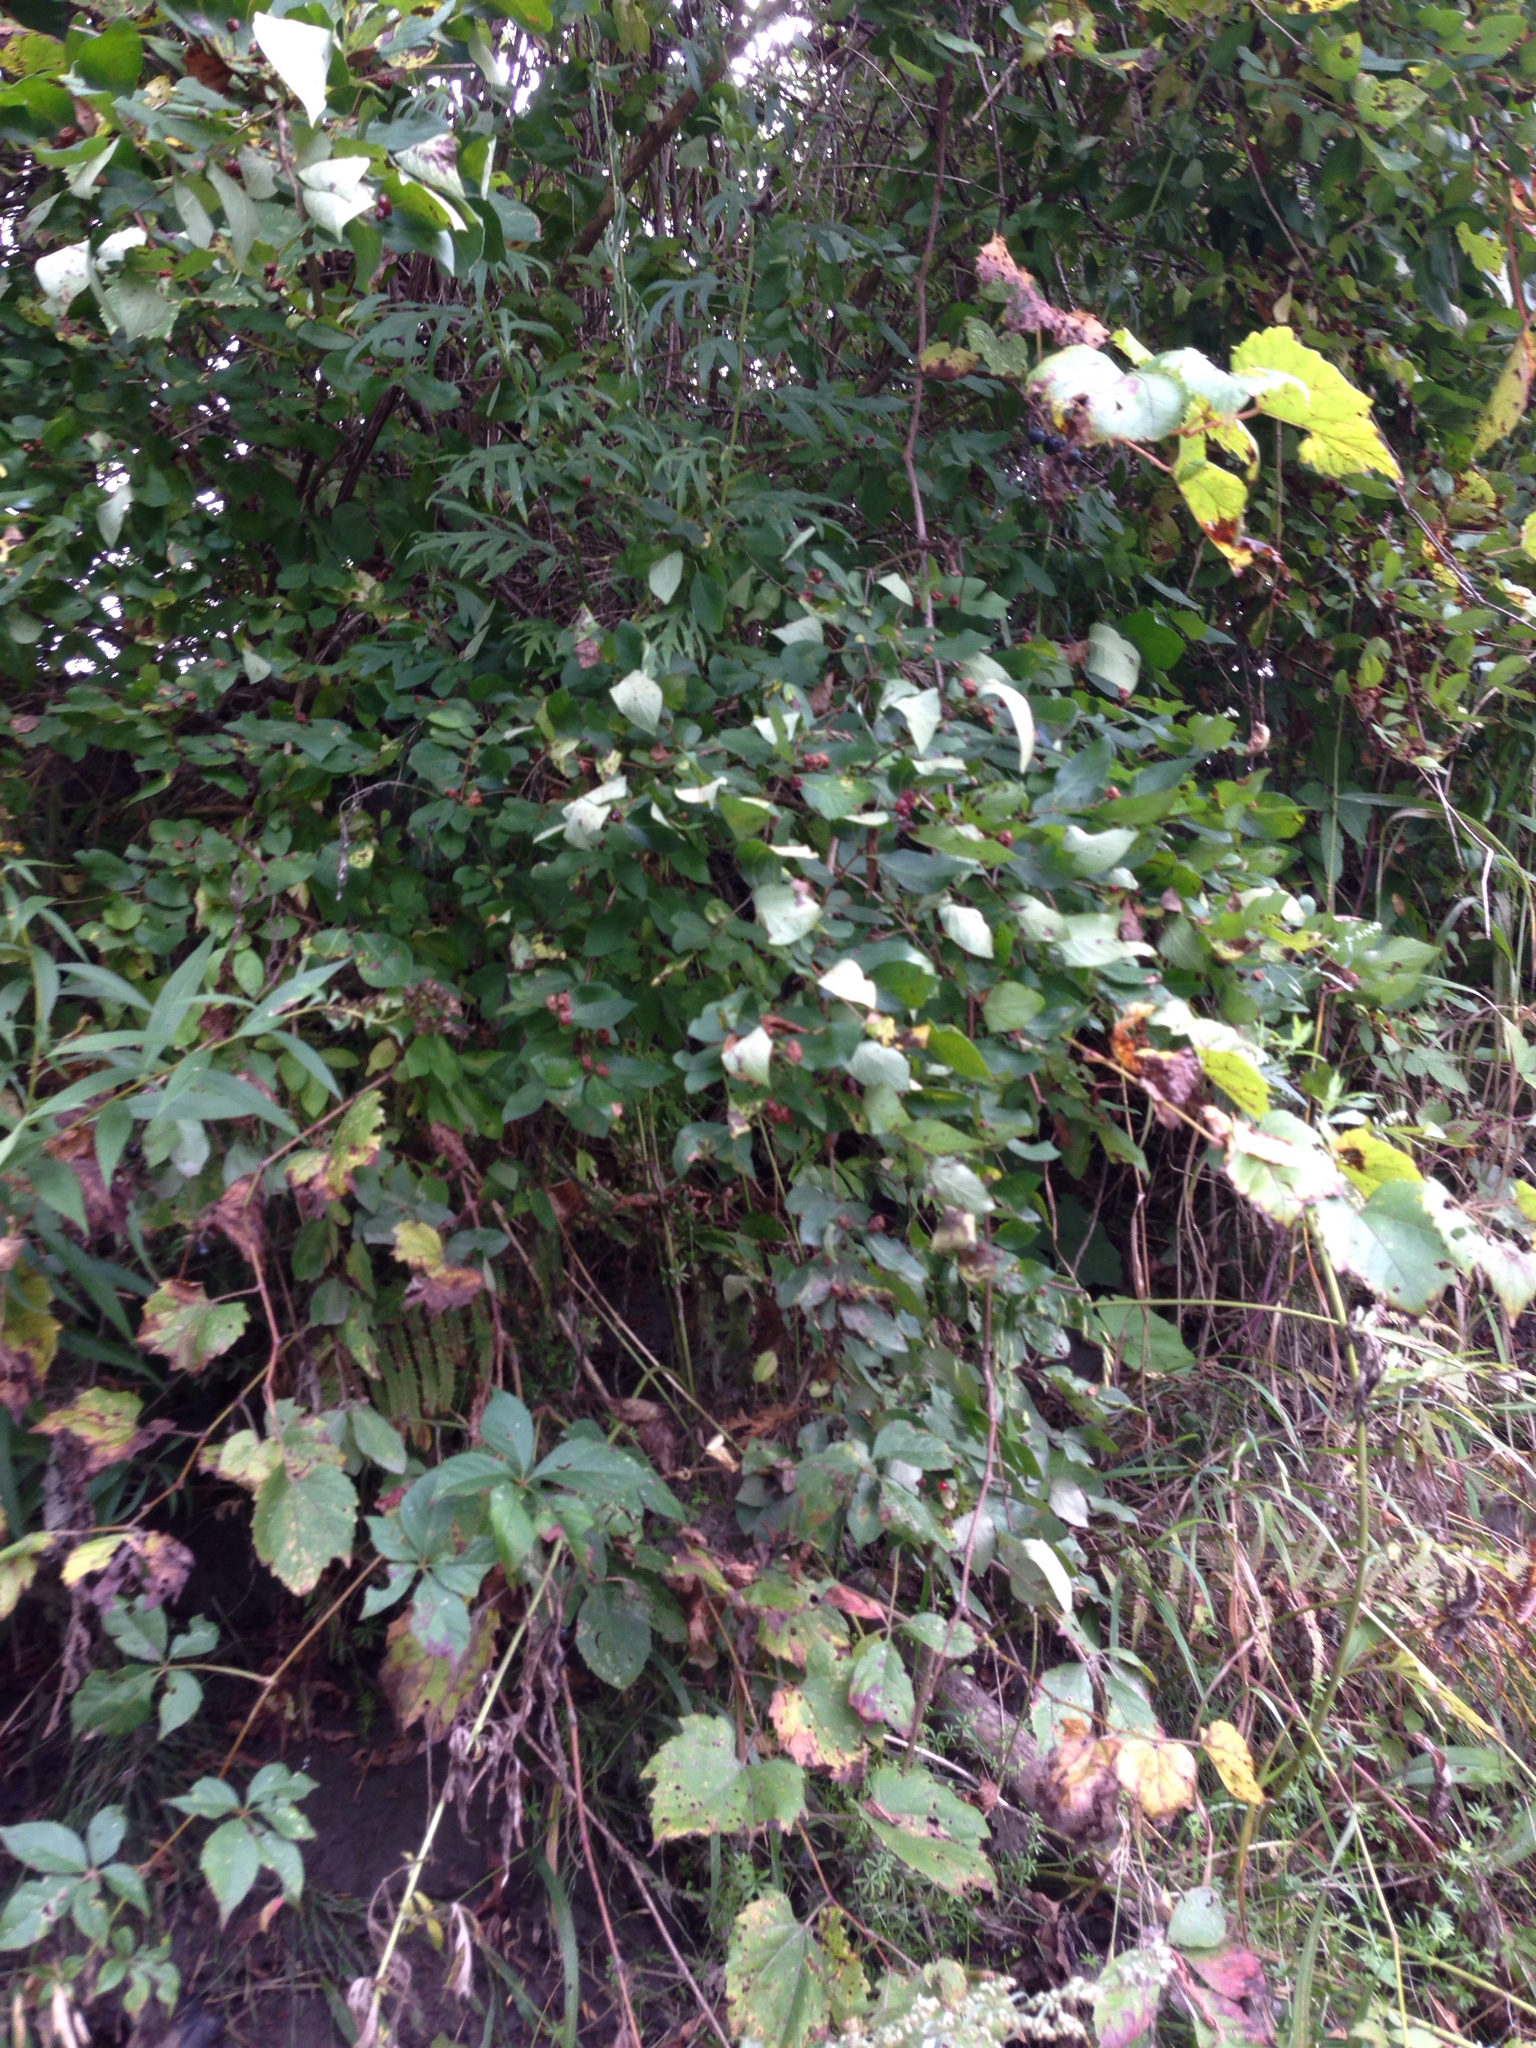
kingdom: Plantae
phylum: Tracheophyta
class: Magnoliopsida
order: Dipsacales
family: Caprifoliaceae
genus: Lonicera
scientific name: Lonicera morrowii
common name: Morrow's honeysuckle
